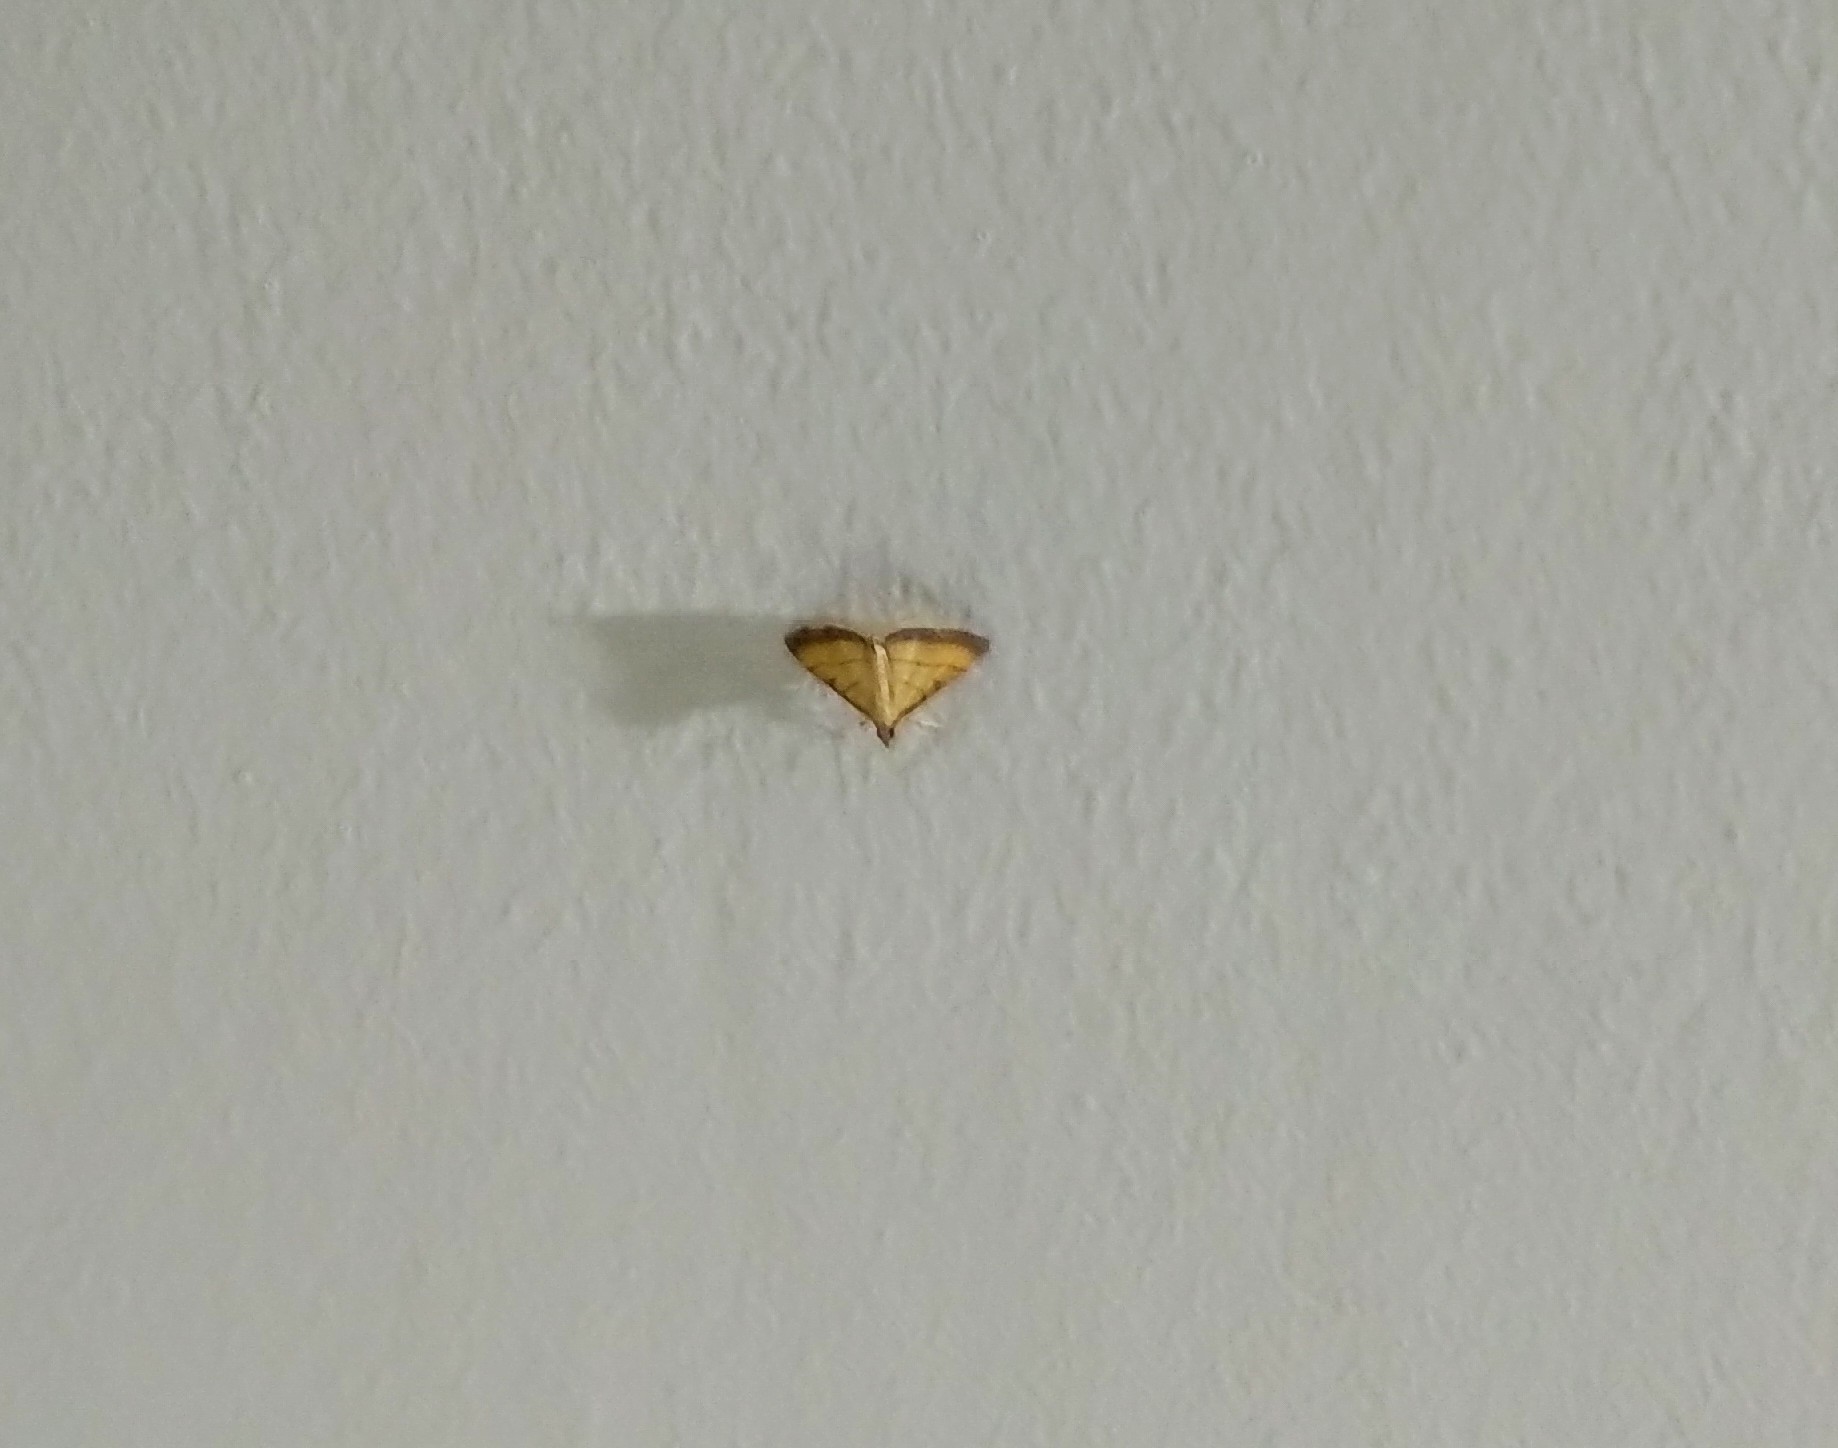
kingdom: Animalia
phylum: Arthropoda
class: Insecta
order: Lepidoptera
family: Crambidae
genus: Cnaphalocrocis
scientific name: Cnaphalocrocis medinalis
